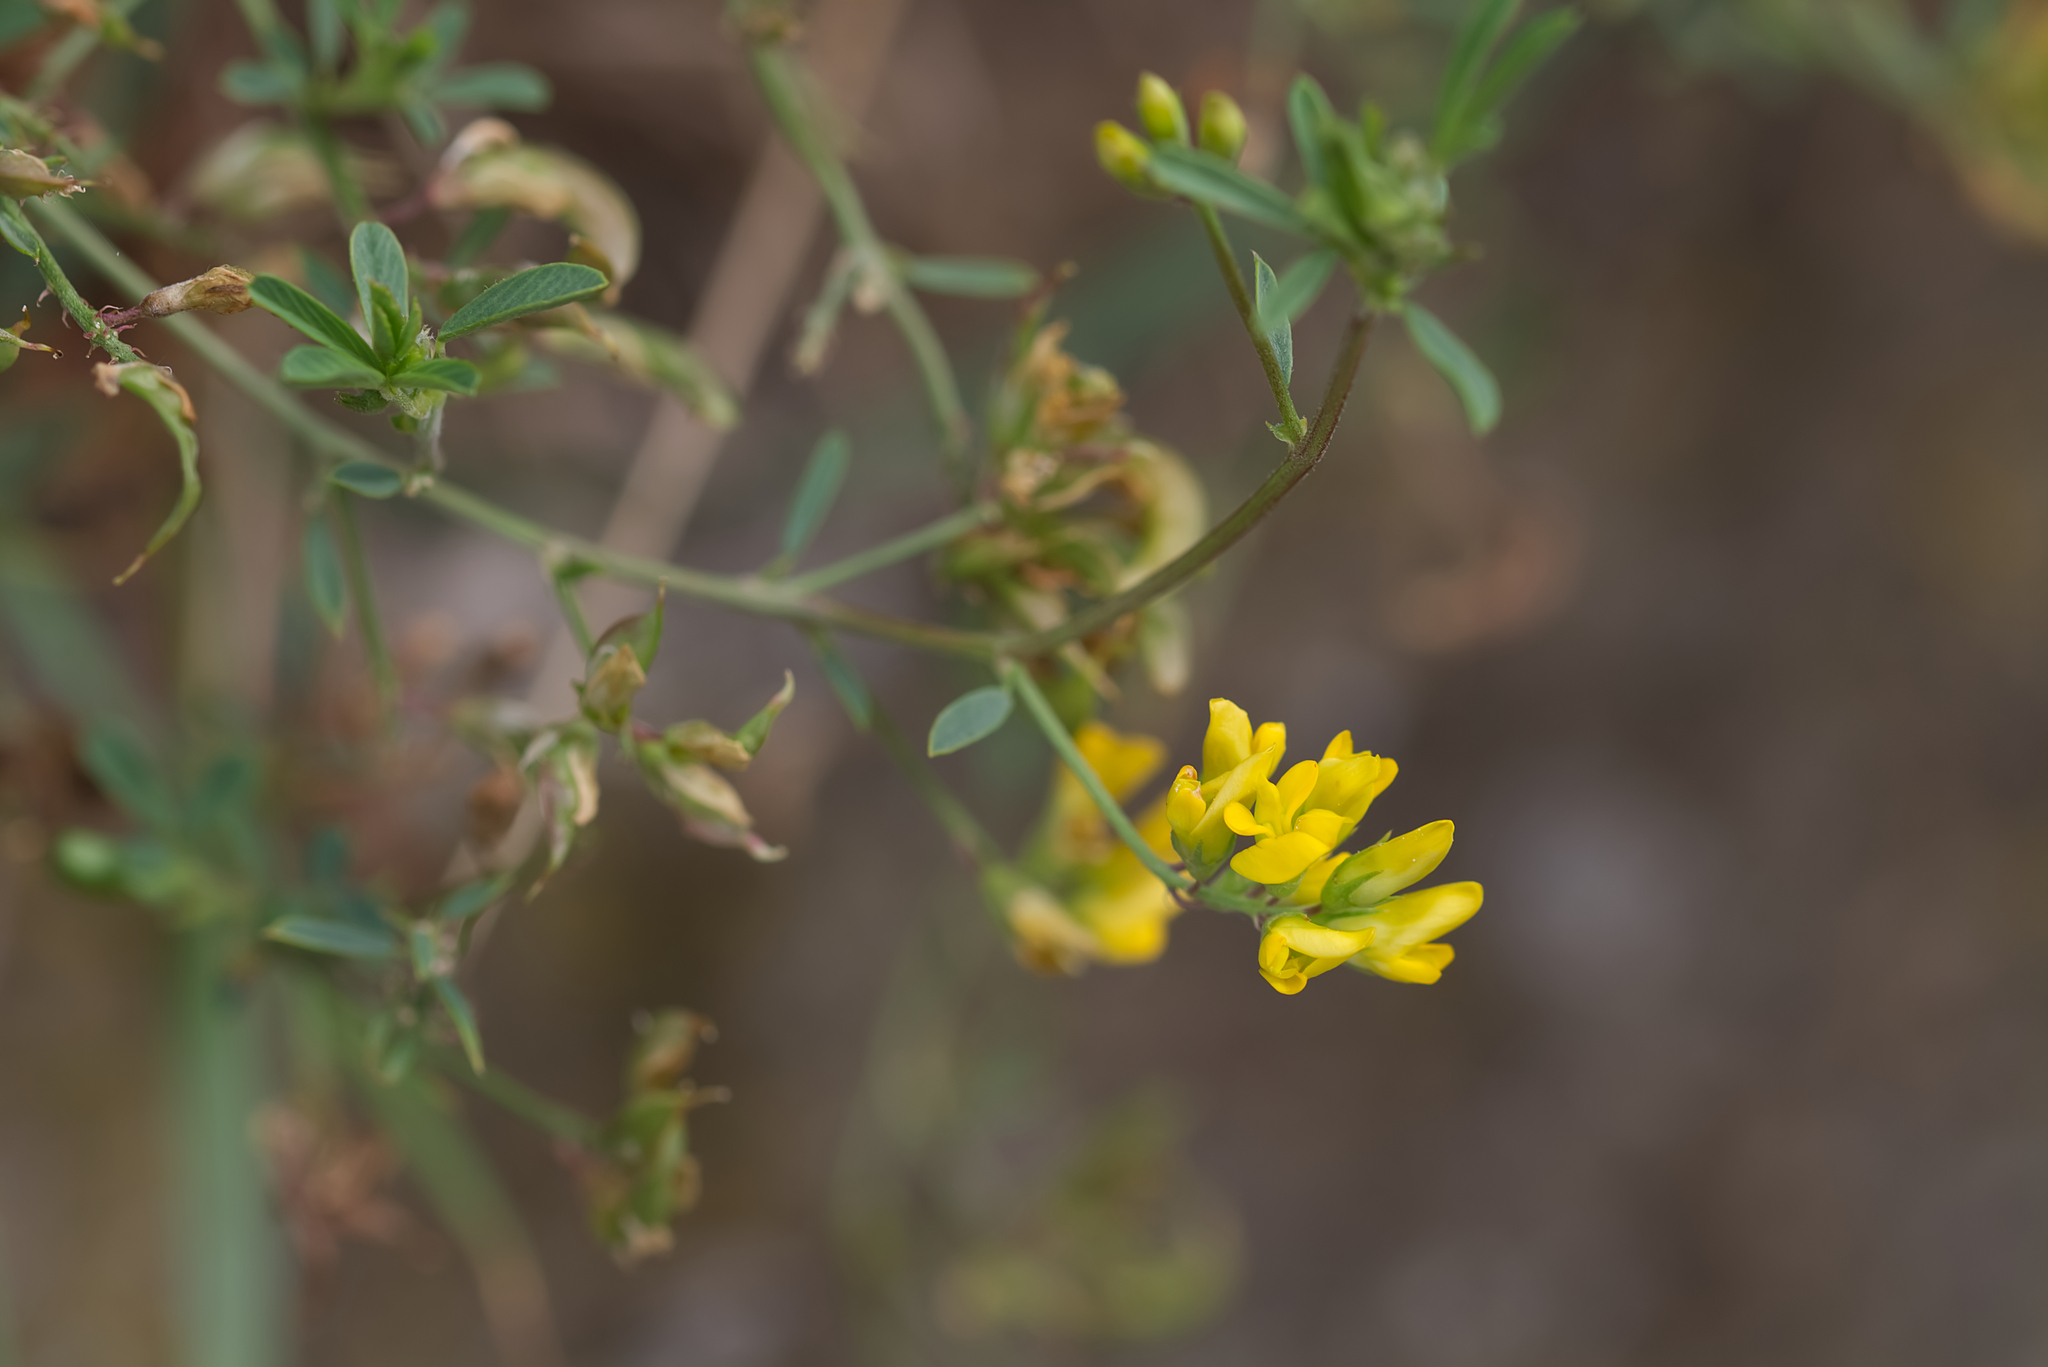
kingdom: Plantae
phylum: Tracheophyta
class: Magnoliopsida
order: Fabales
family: Fabaceae
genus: Medicago
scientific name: Medicago falcata
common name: Sickle medick
